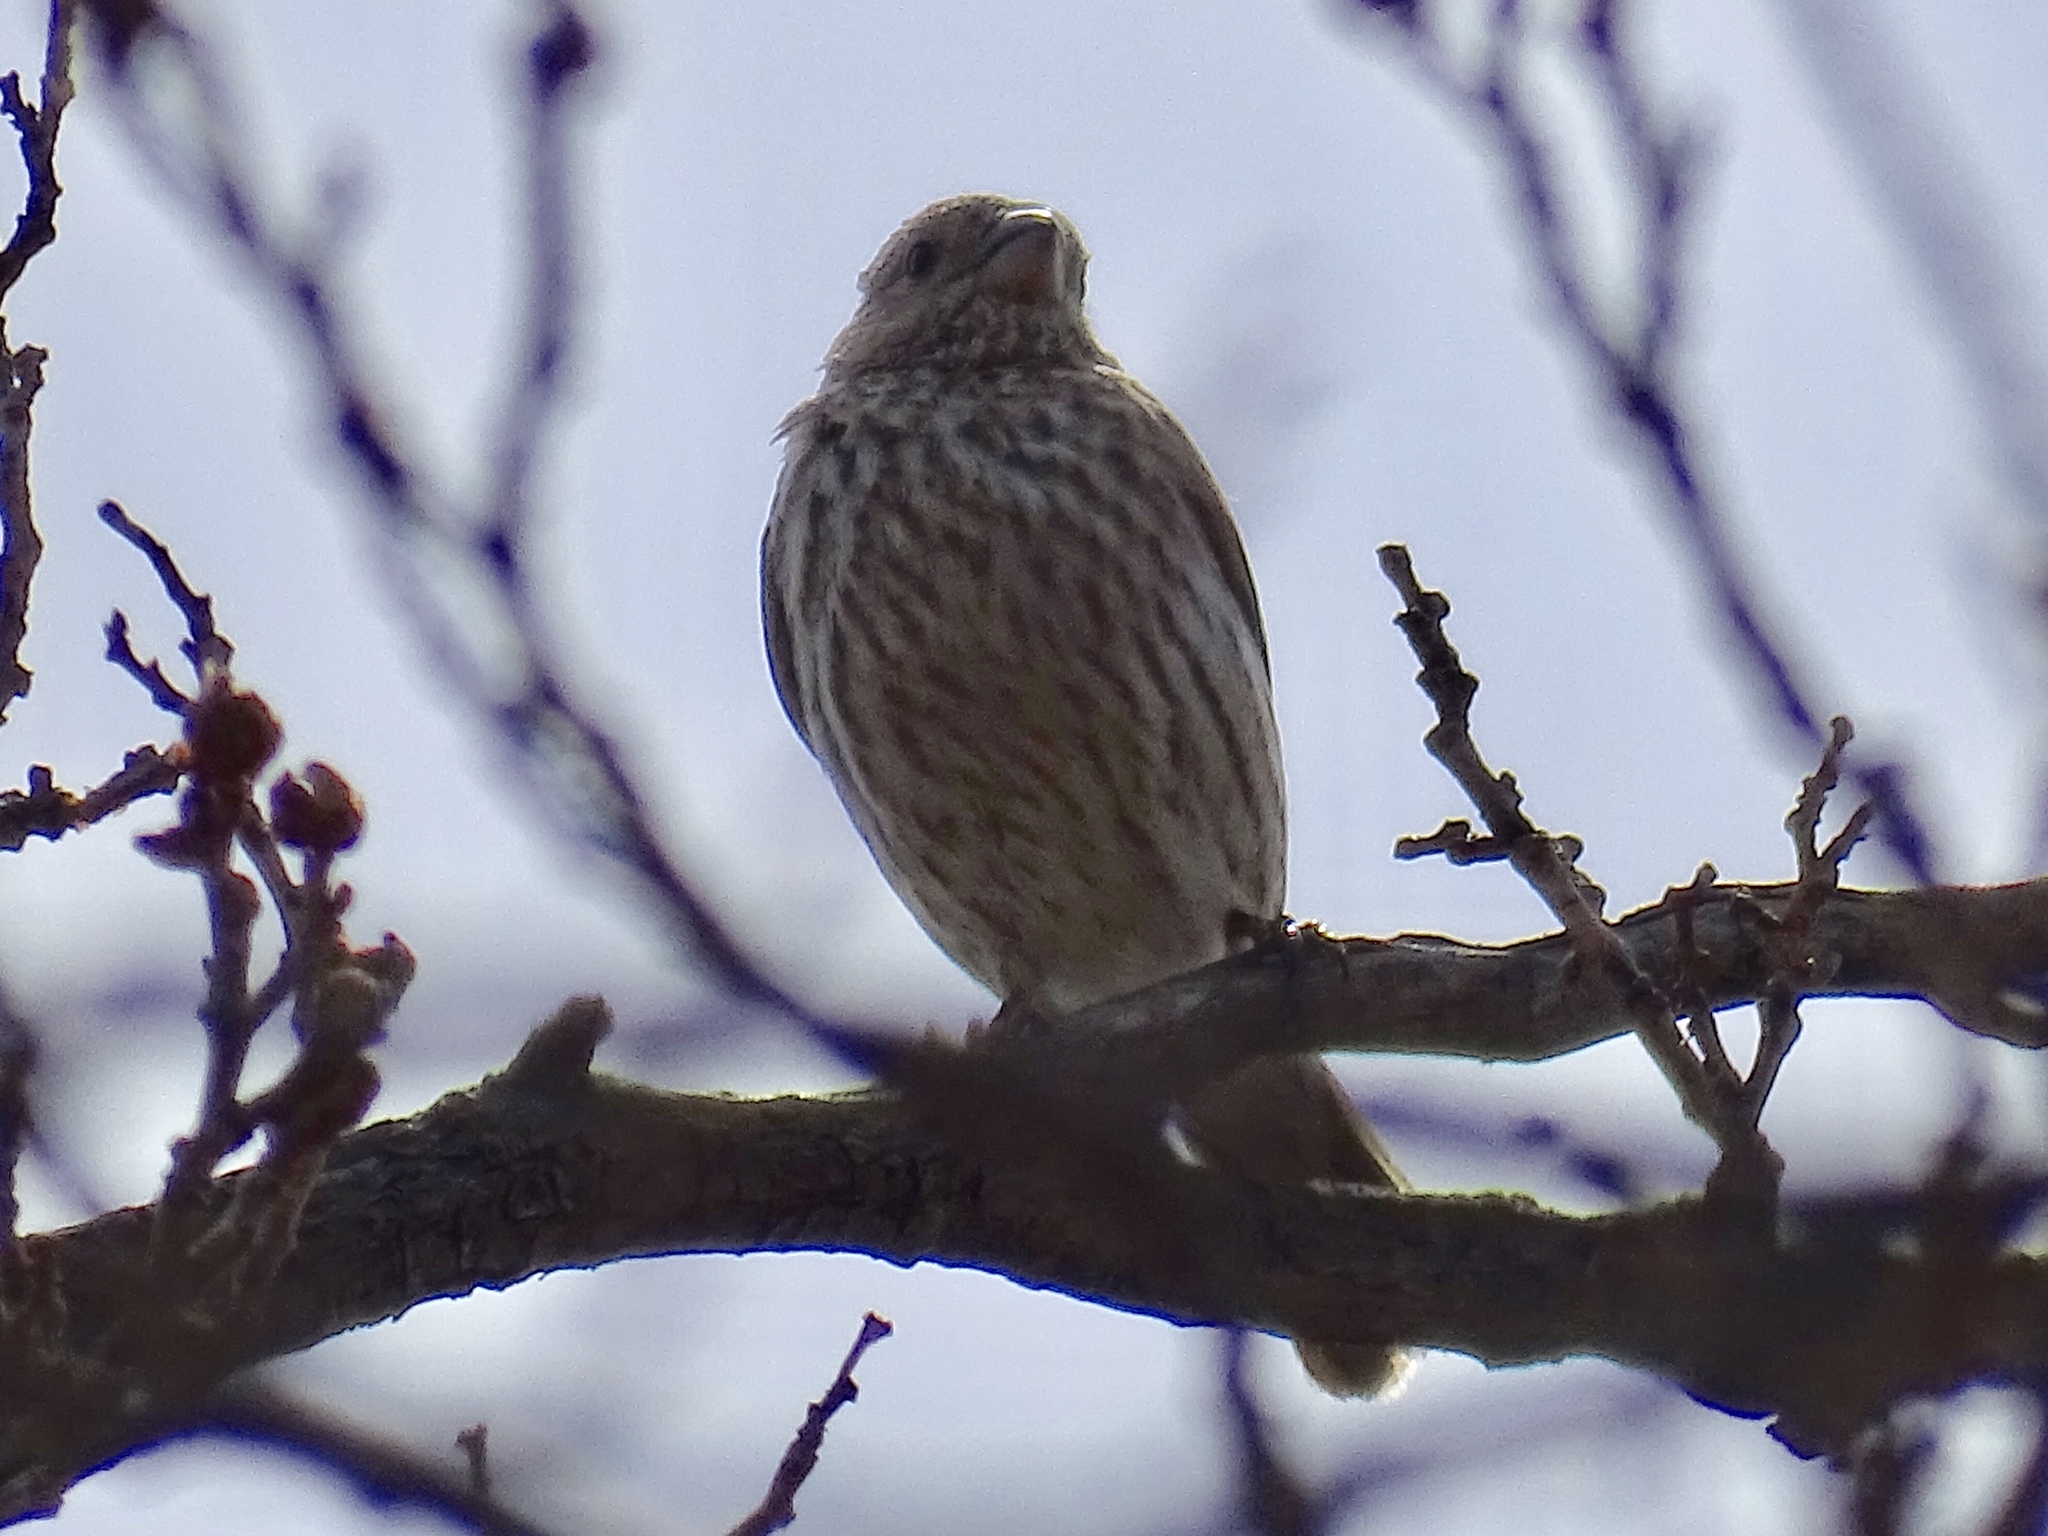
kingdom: Animalia
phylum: Chordata
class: Aves
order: Passeriformes
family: Fringillidae
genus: Haemorhous
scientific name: Haemorhous mexicanus
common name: House finch
